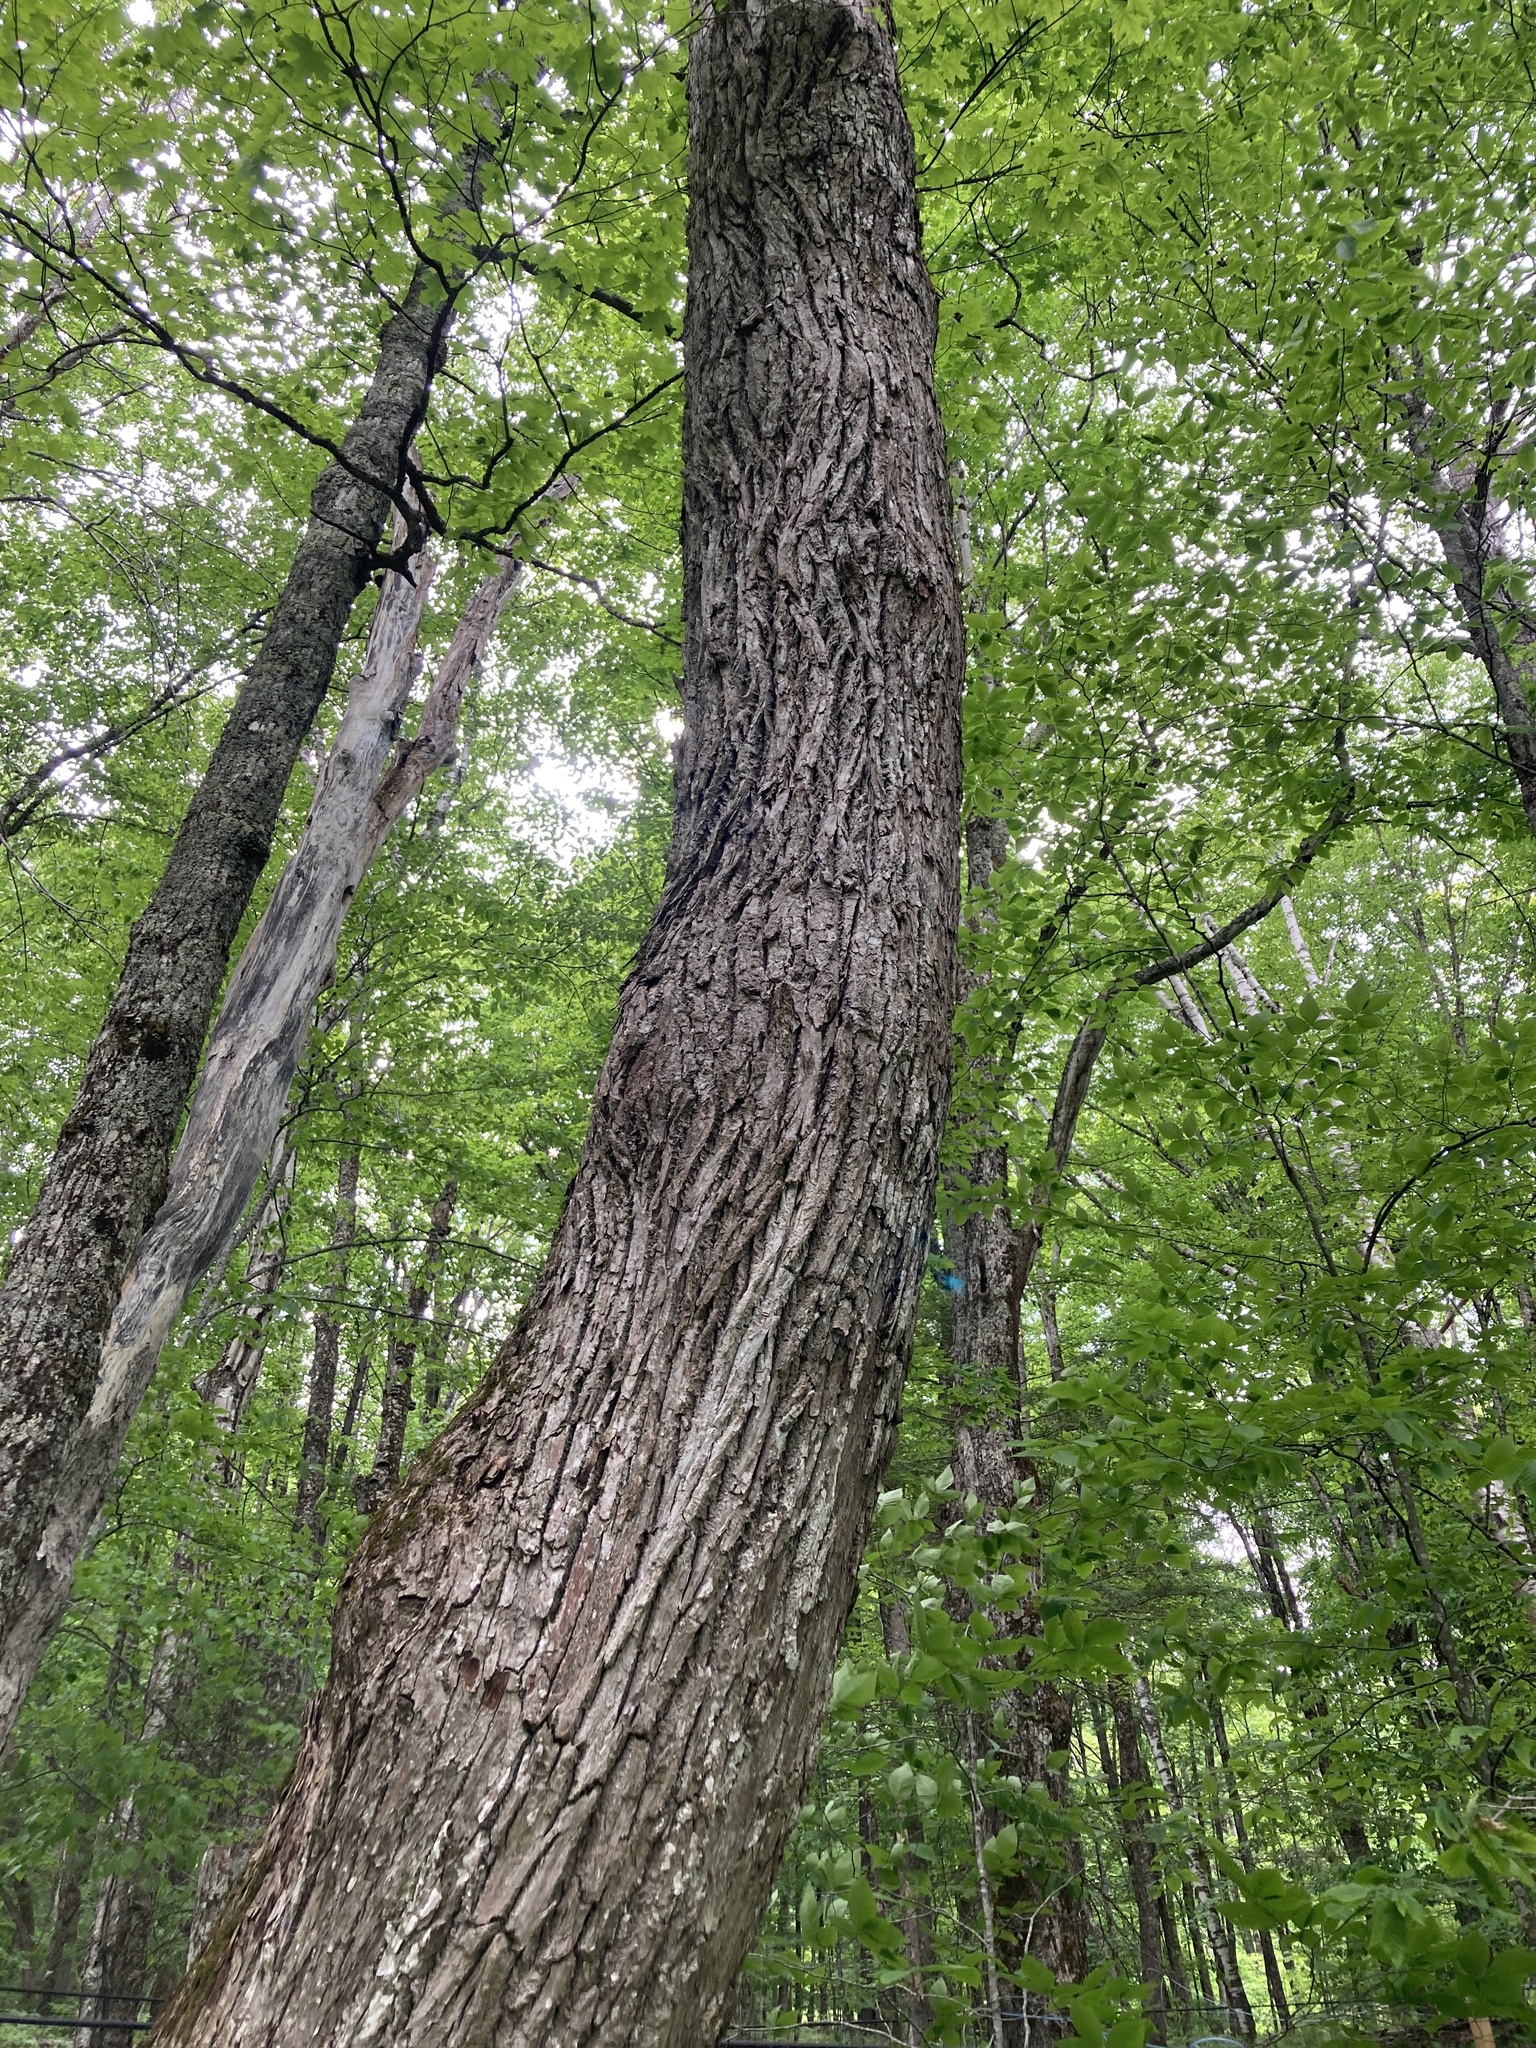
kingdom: Plantae
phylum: Tracheophyta
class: Magnoliopsida
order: Fagales
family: Fagaceae
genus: Quercus
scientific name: Quercus rubra
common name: Red oak
